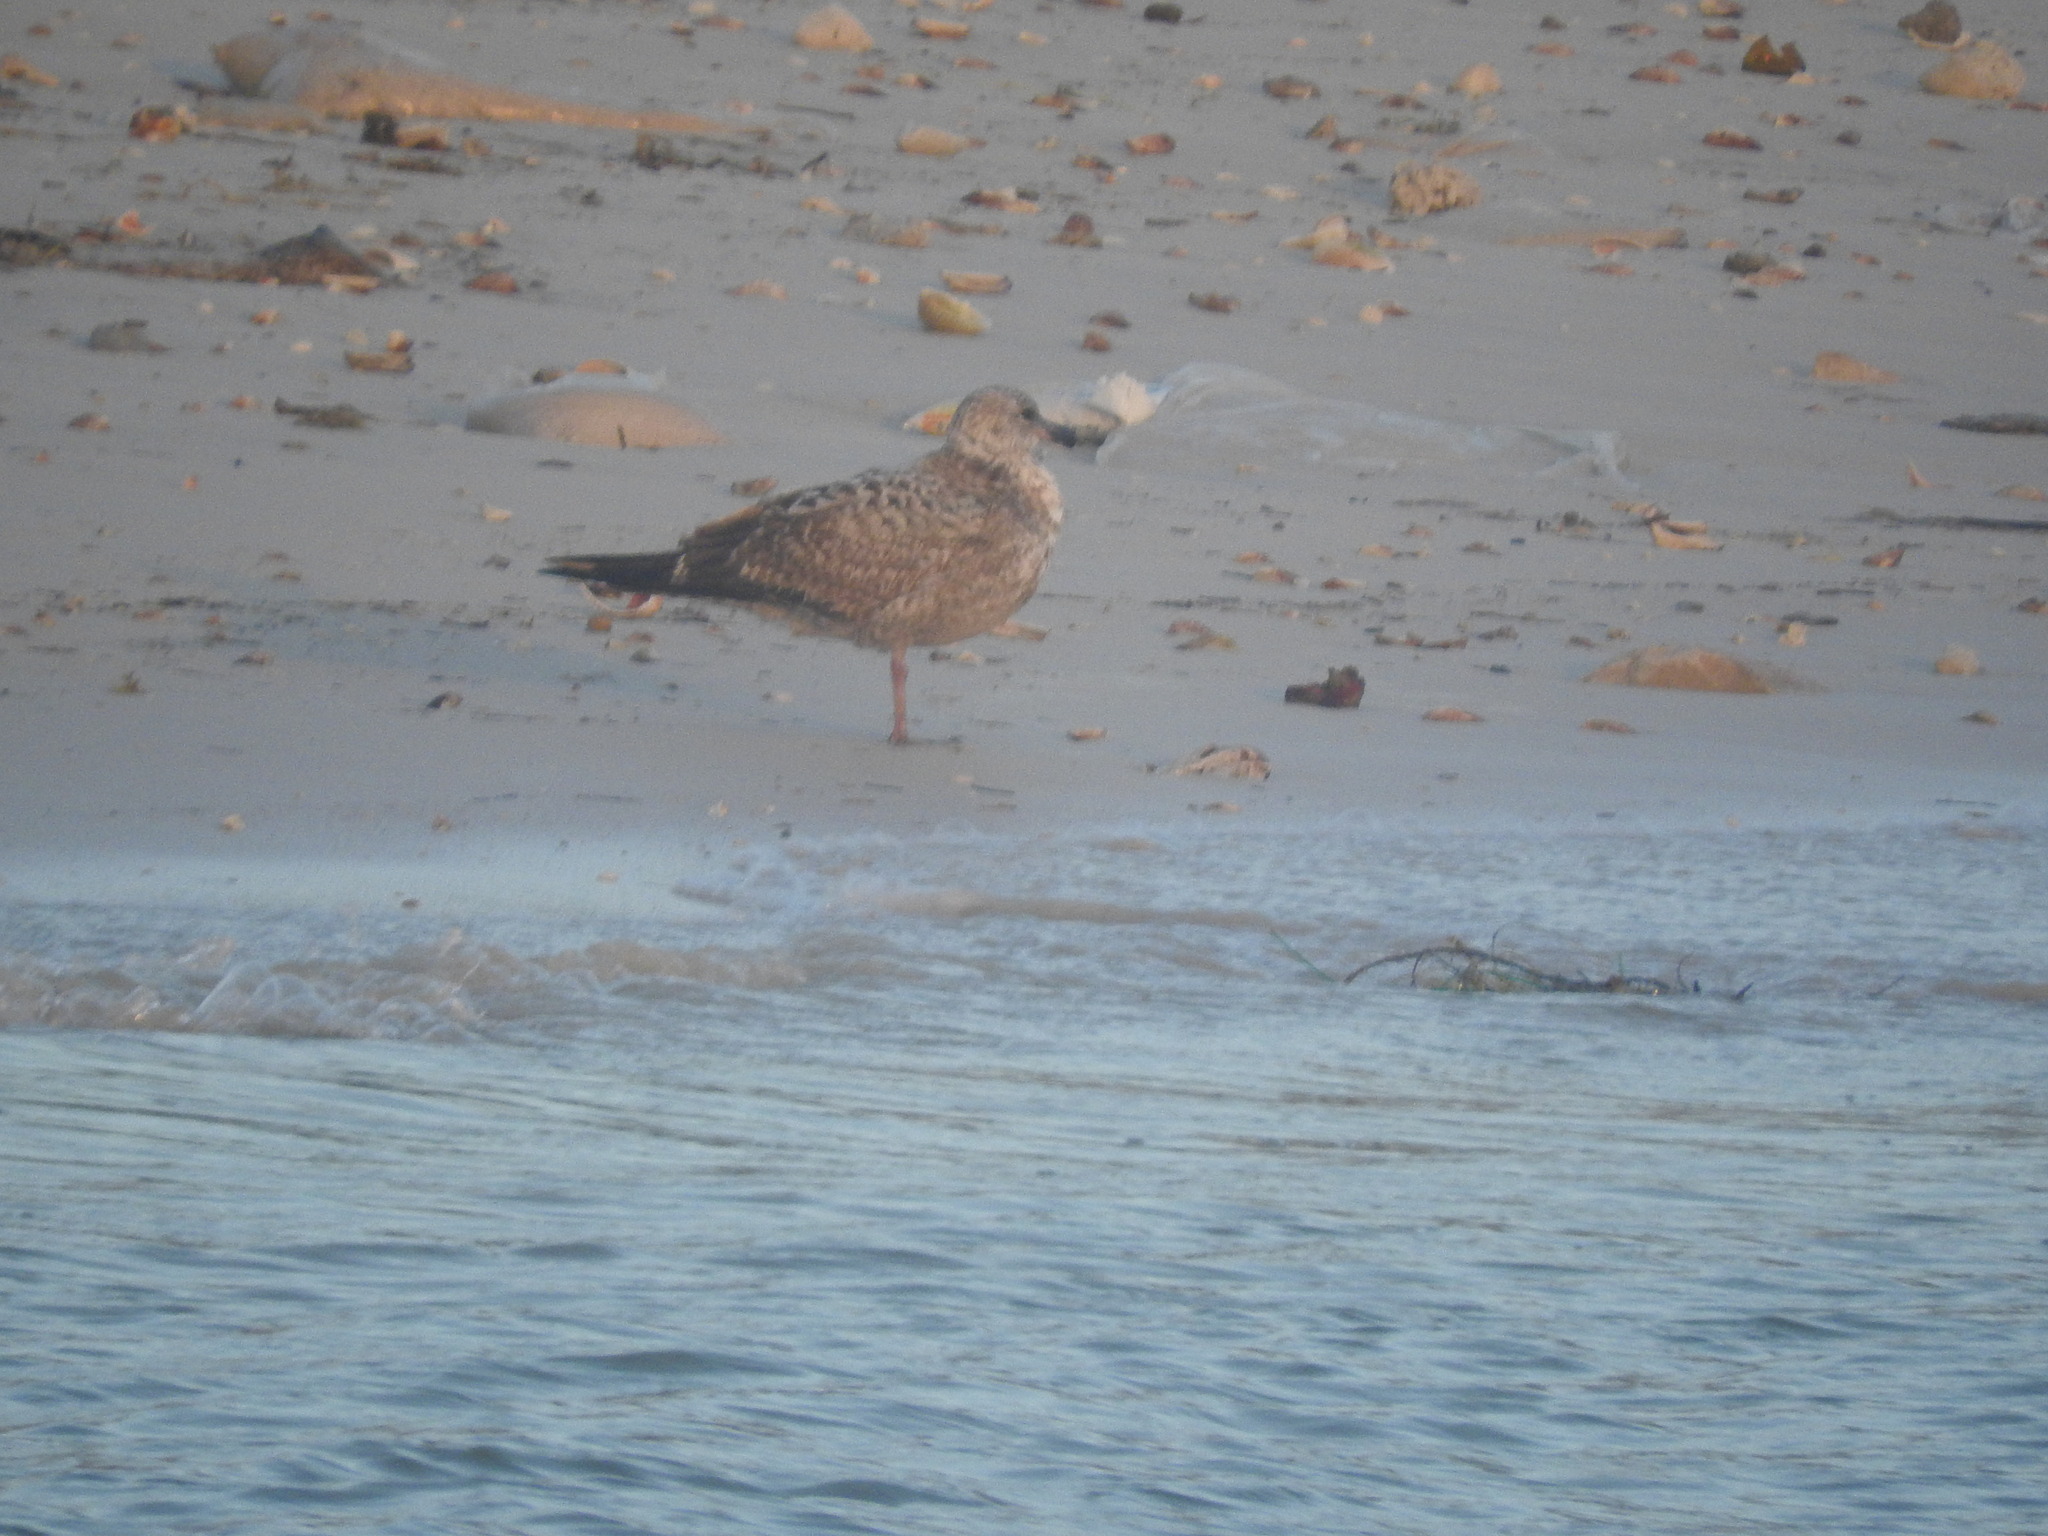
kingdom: Animalia
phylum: Chordata
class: Aves
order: Charadriiformes
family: Laridae
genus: Larus
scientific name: Larus argentatus
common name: Herring gull
